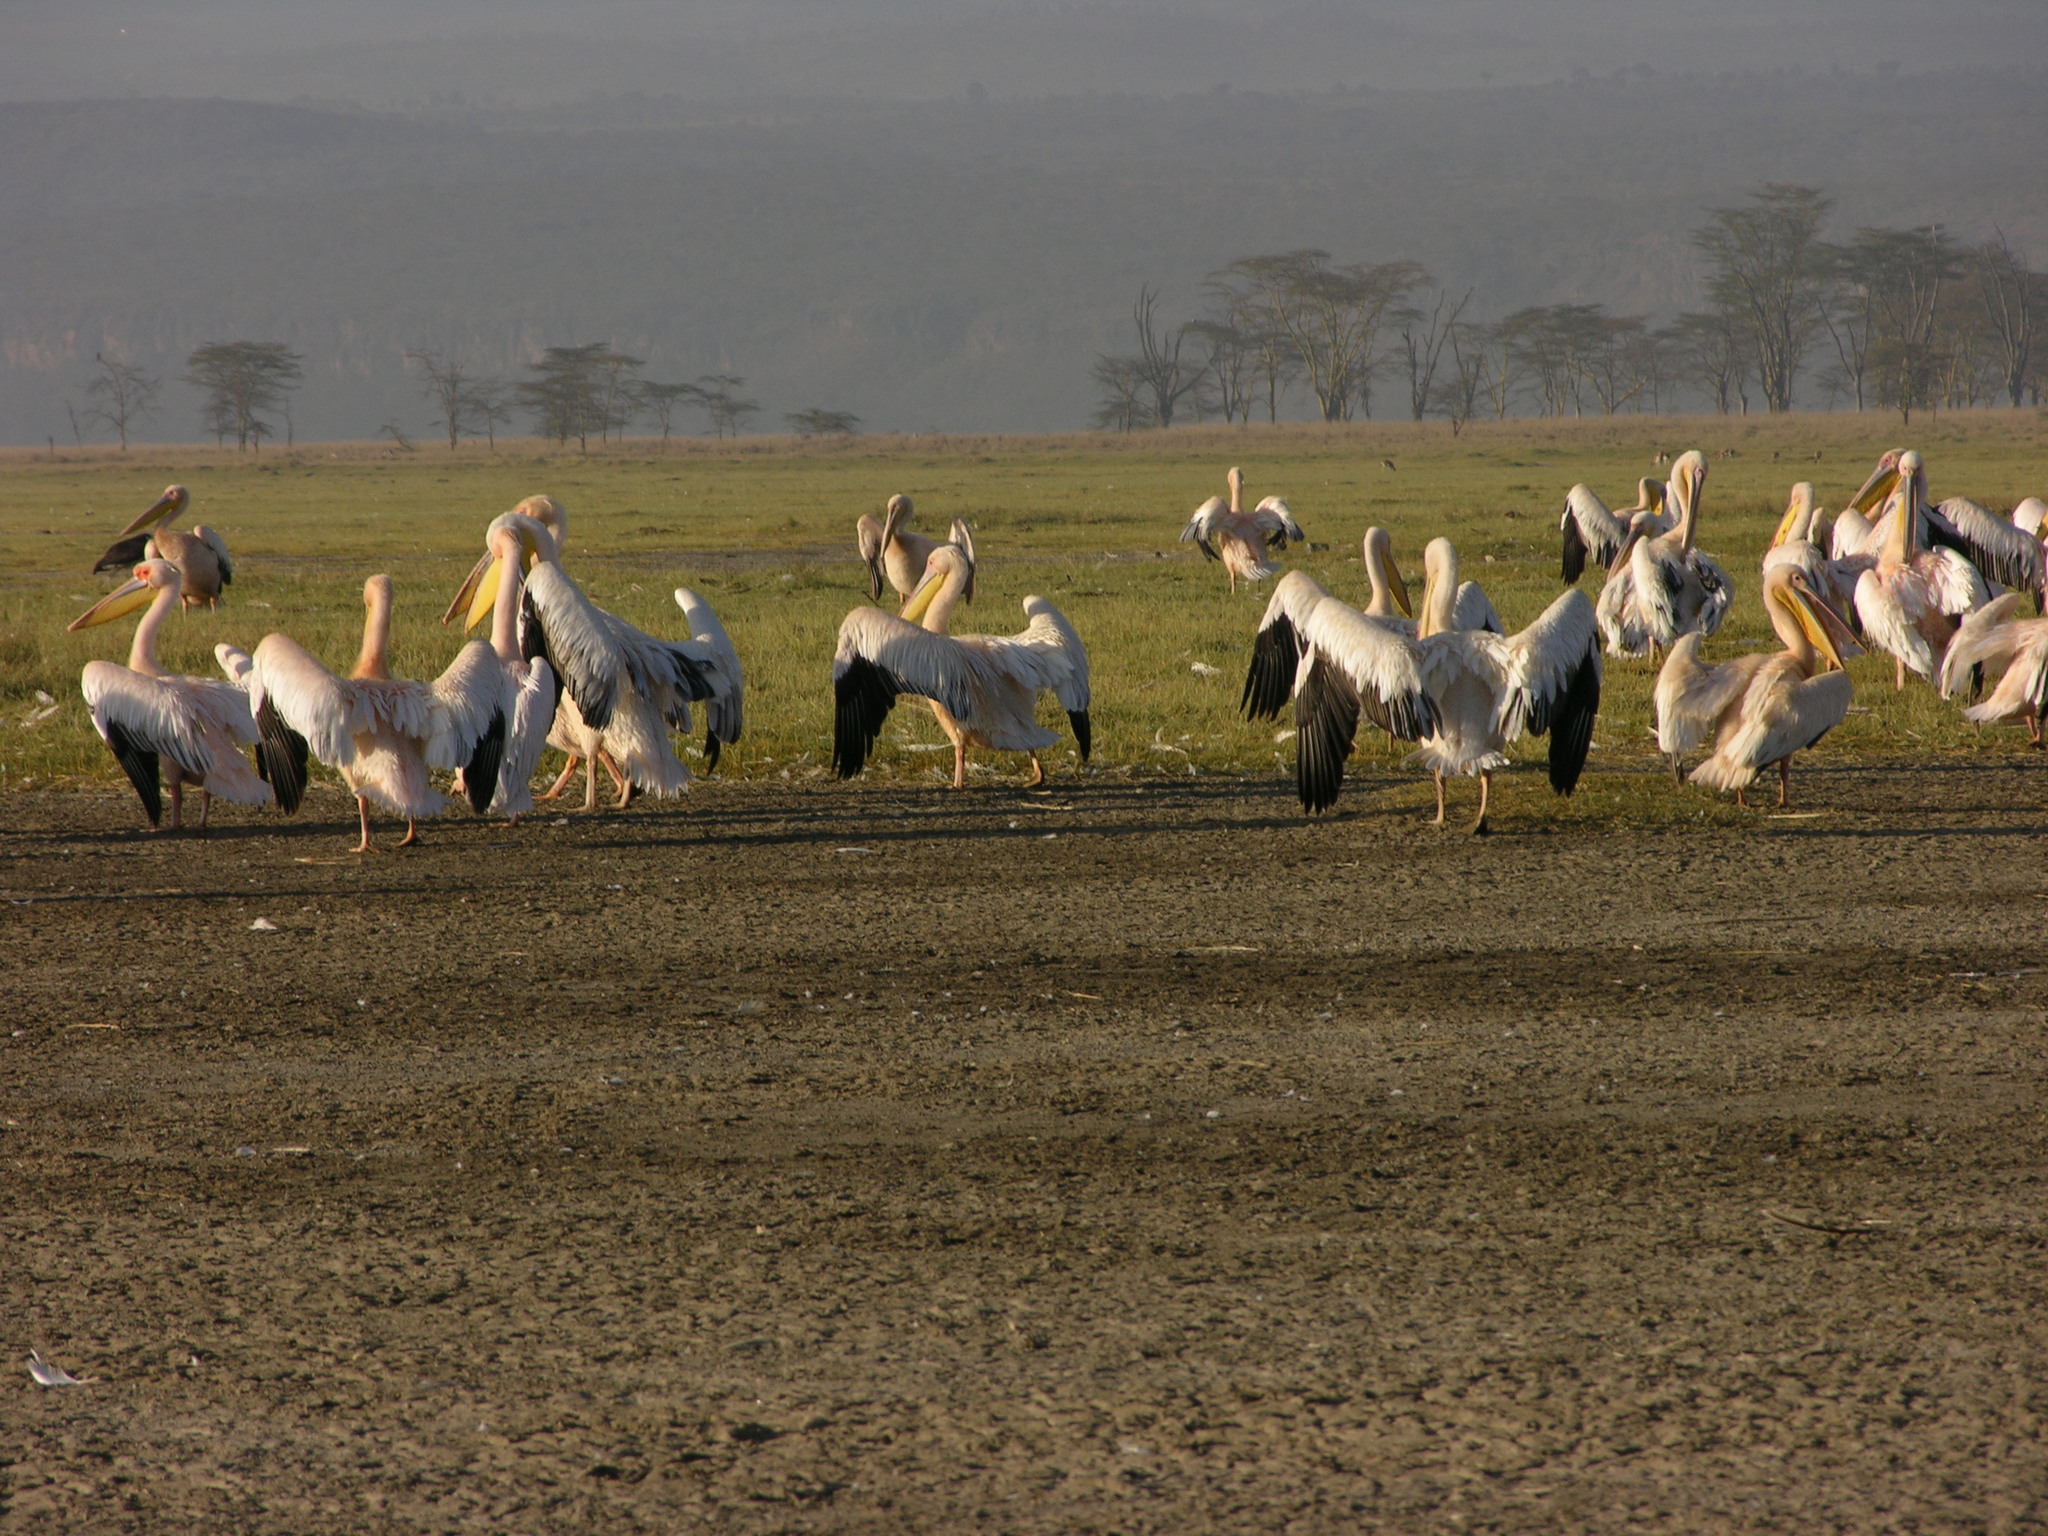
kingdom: Animalia
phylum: Chordata
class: Aves
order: Pelecaniformes
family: Pelecanidae
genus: Pelecanus
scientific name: Pelecanus onocrotalus
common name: Great white pelican
